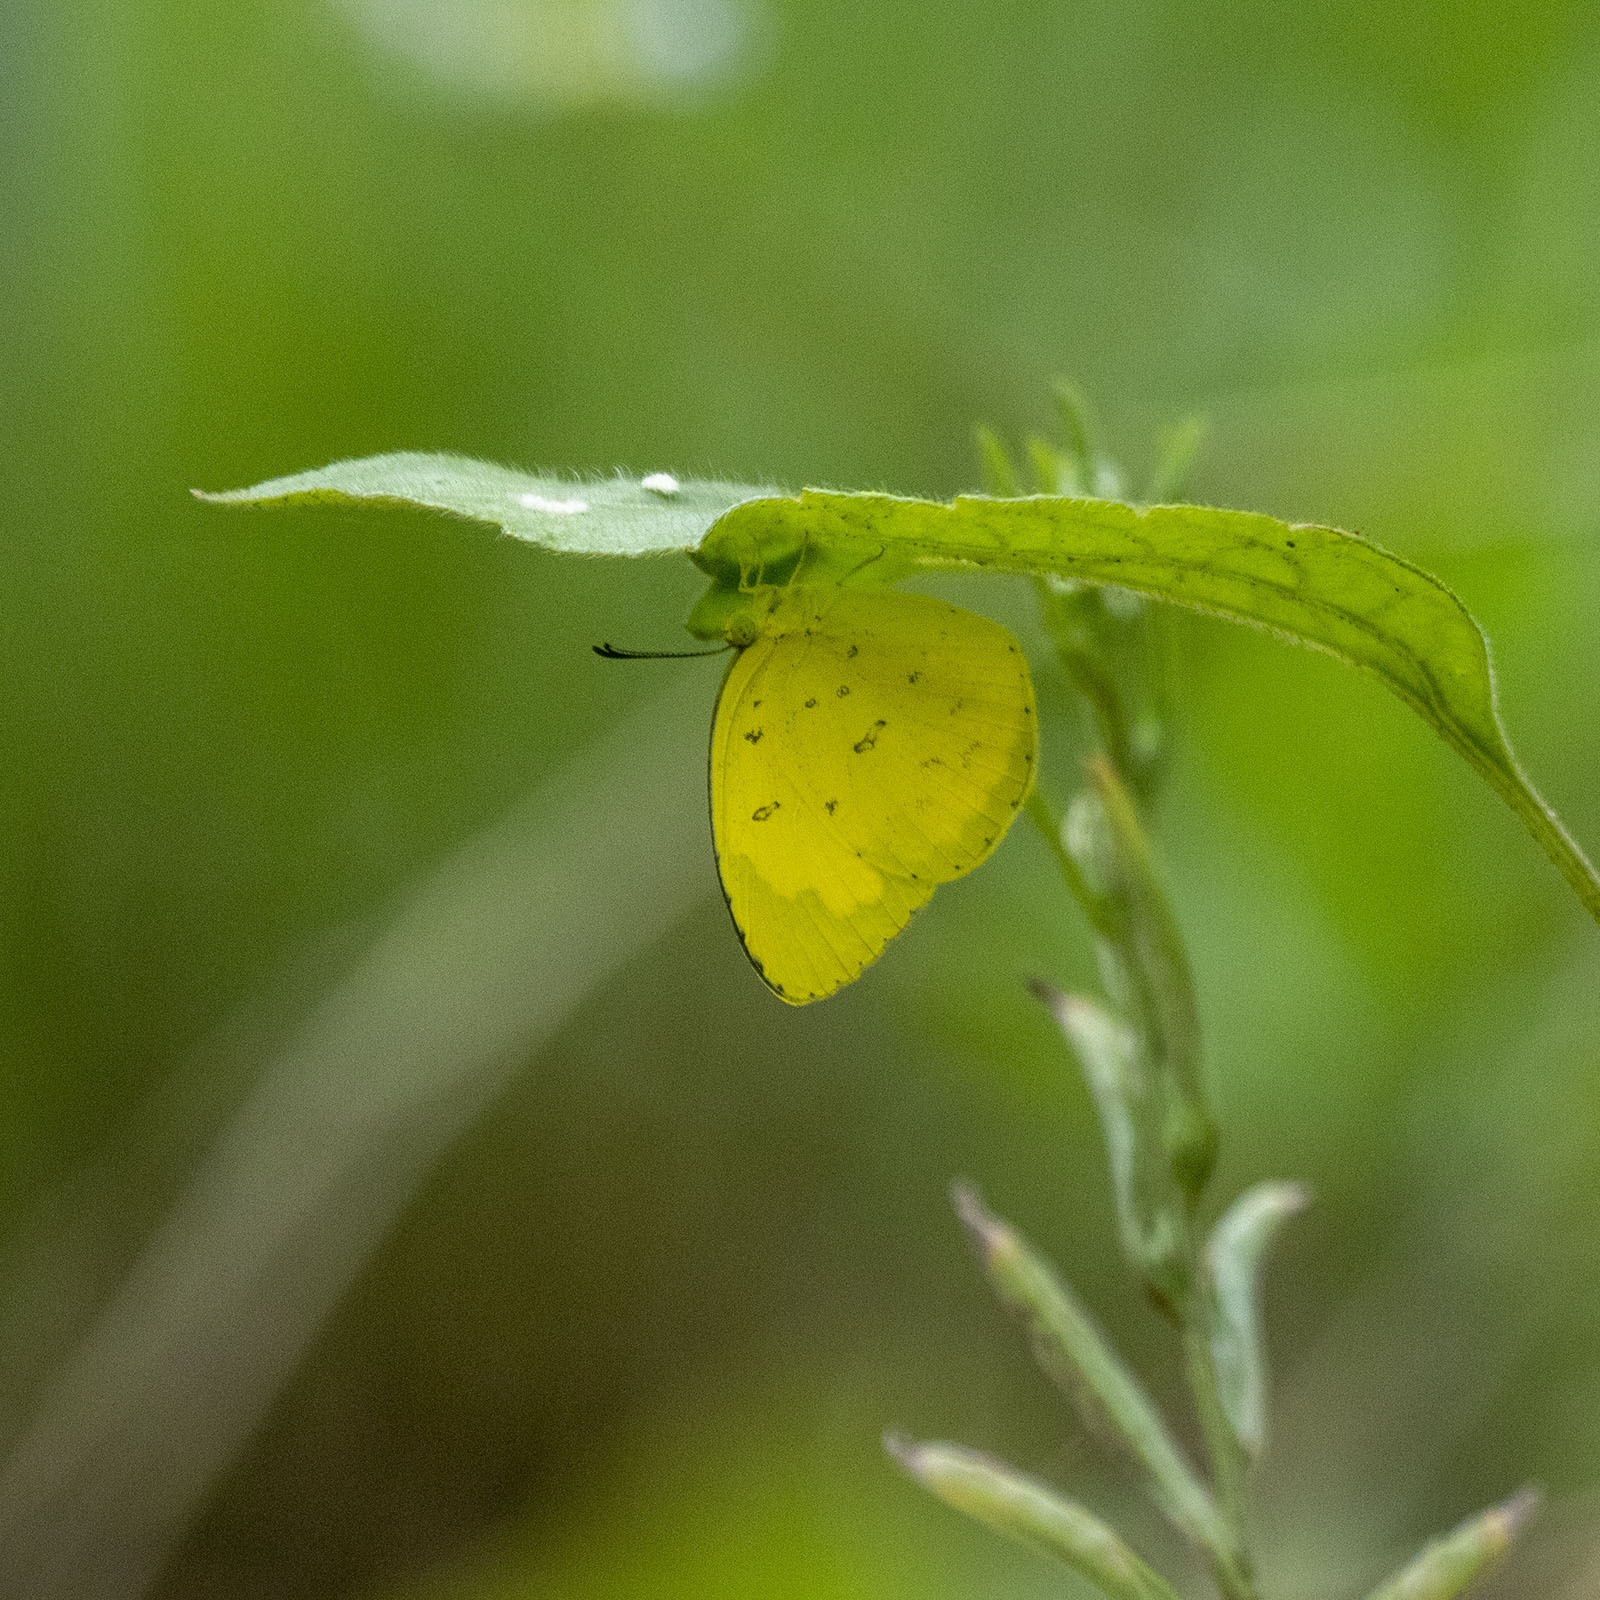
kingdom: Animalia
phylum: Arthropoda
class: Insecta
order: Lepidoptera
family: Pieridae
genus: Eurema
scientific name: Eurema hecabe
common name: Pale grass yellow
